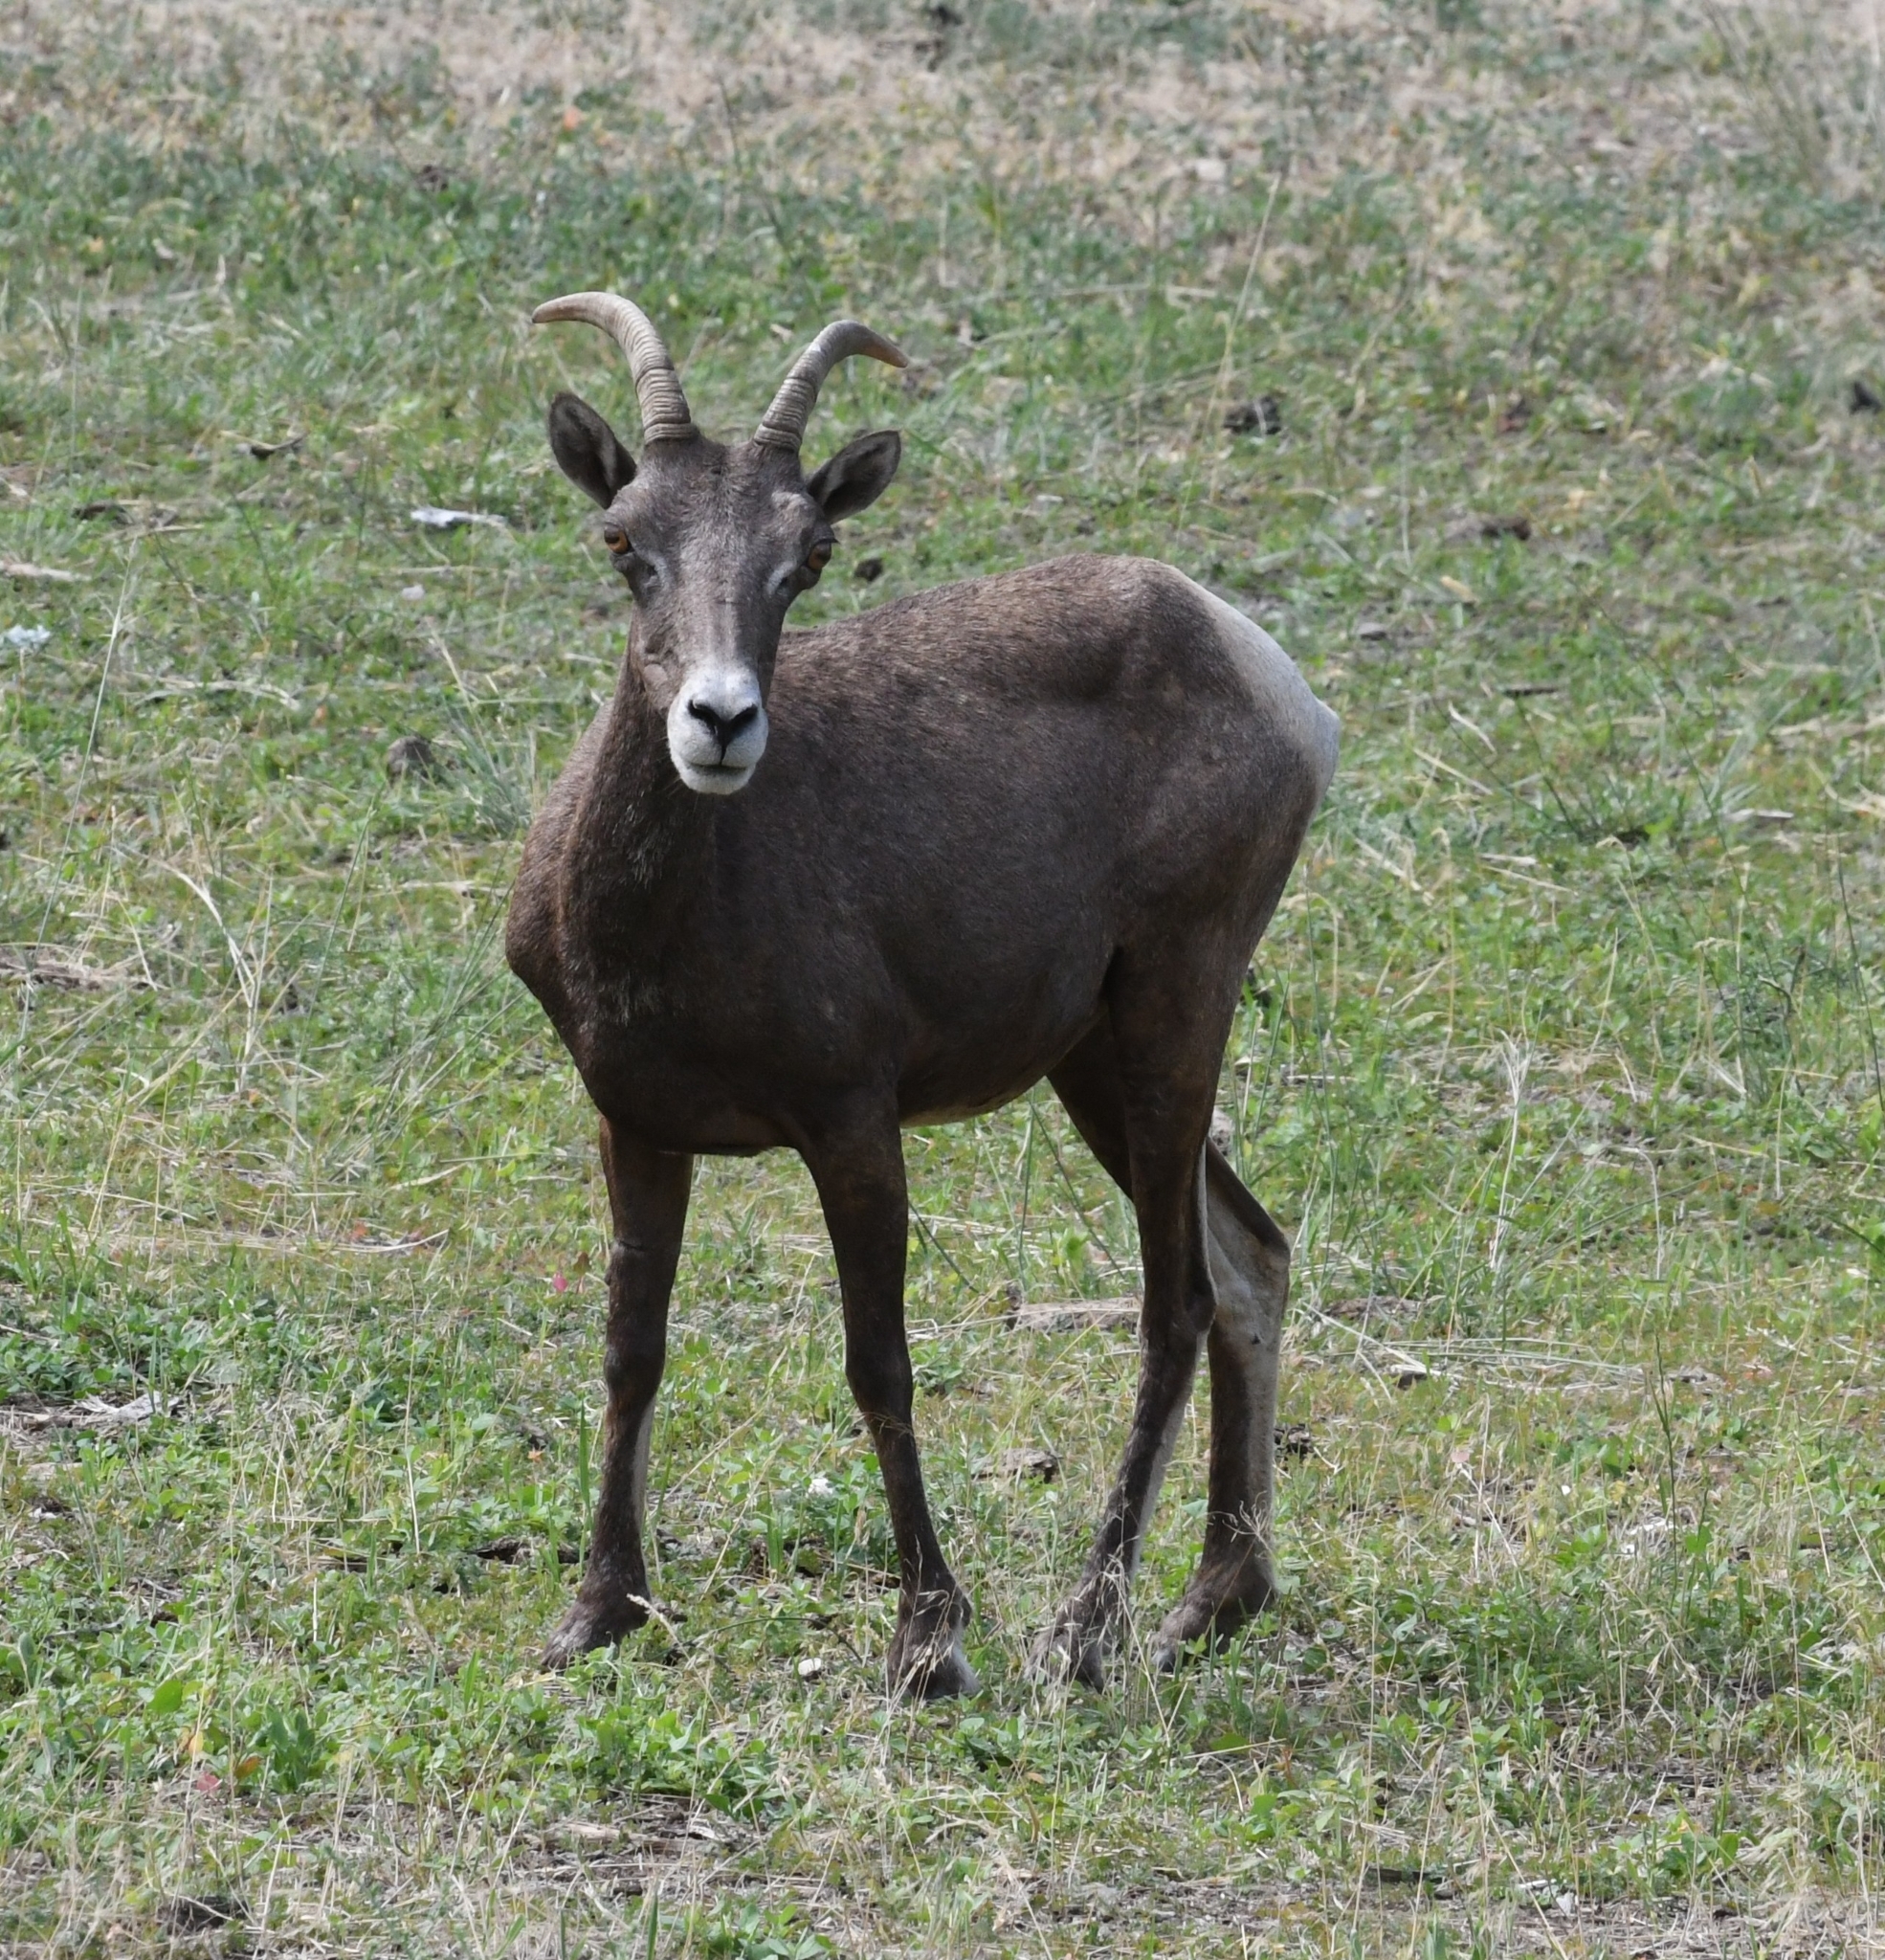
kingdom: Animalia
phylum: Chordata
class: Mammalia
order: Artiodactyla
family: Bovidae
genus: Ovis
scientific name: Ovis canadensis
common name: Bighorn sheep
